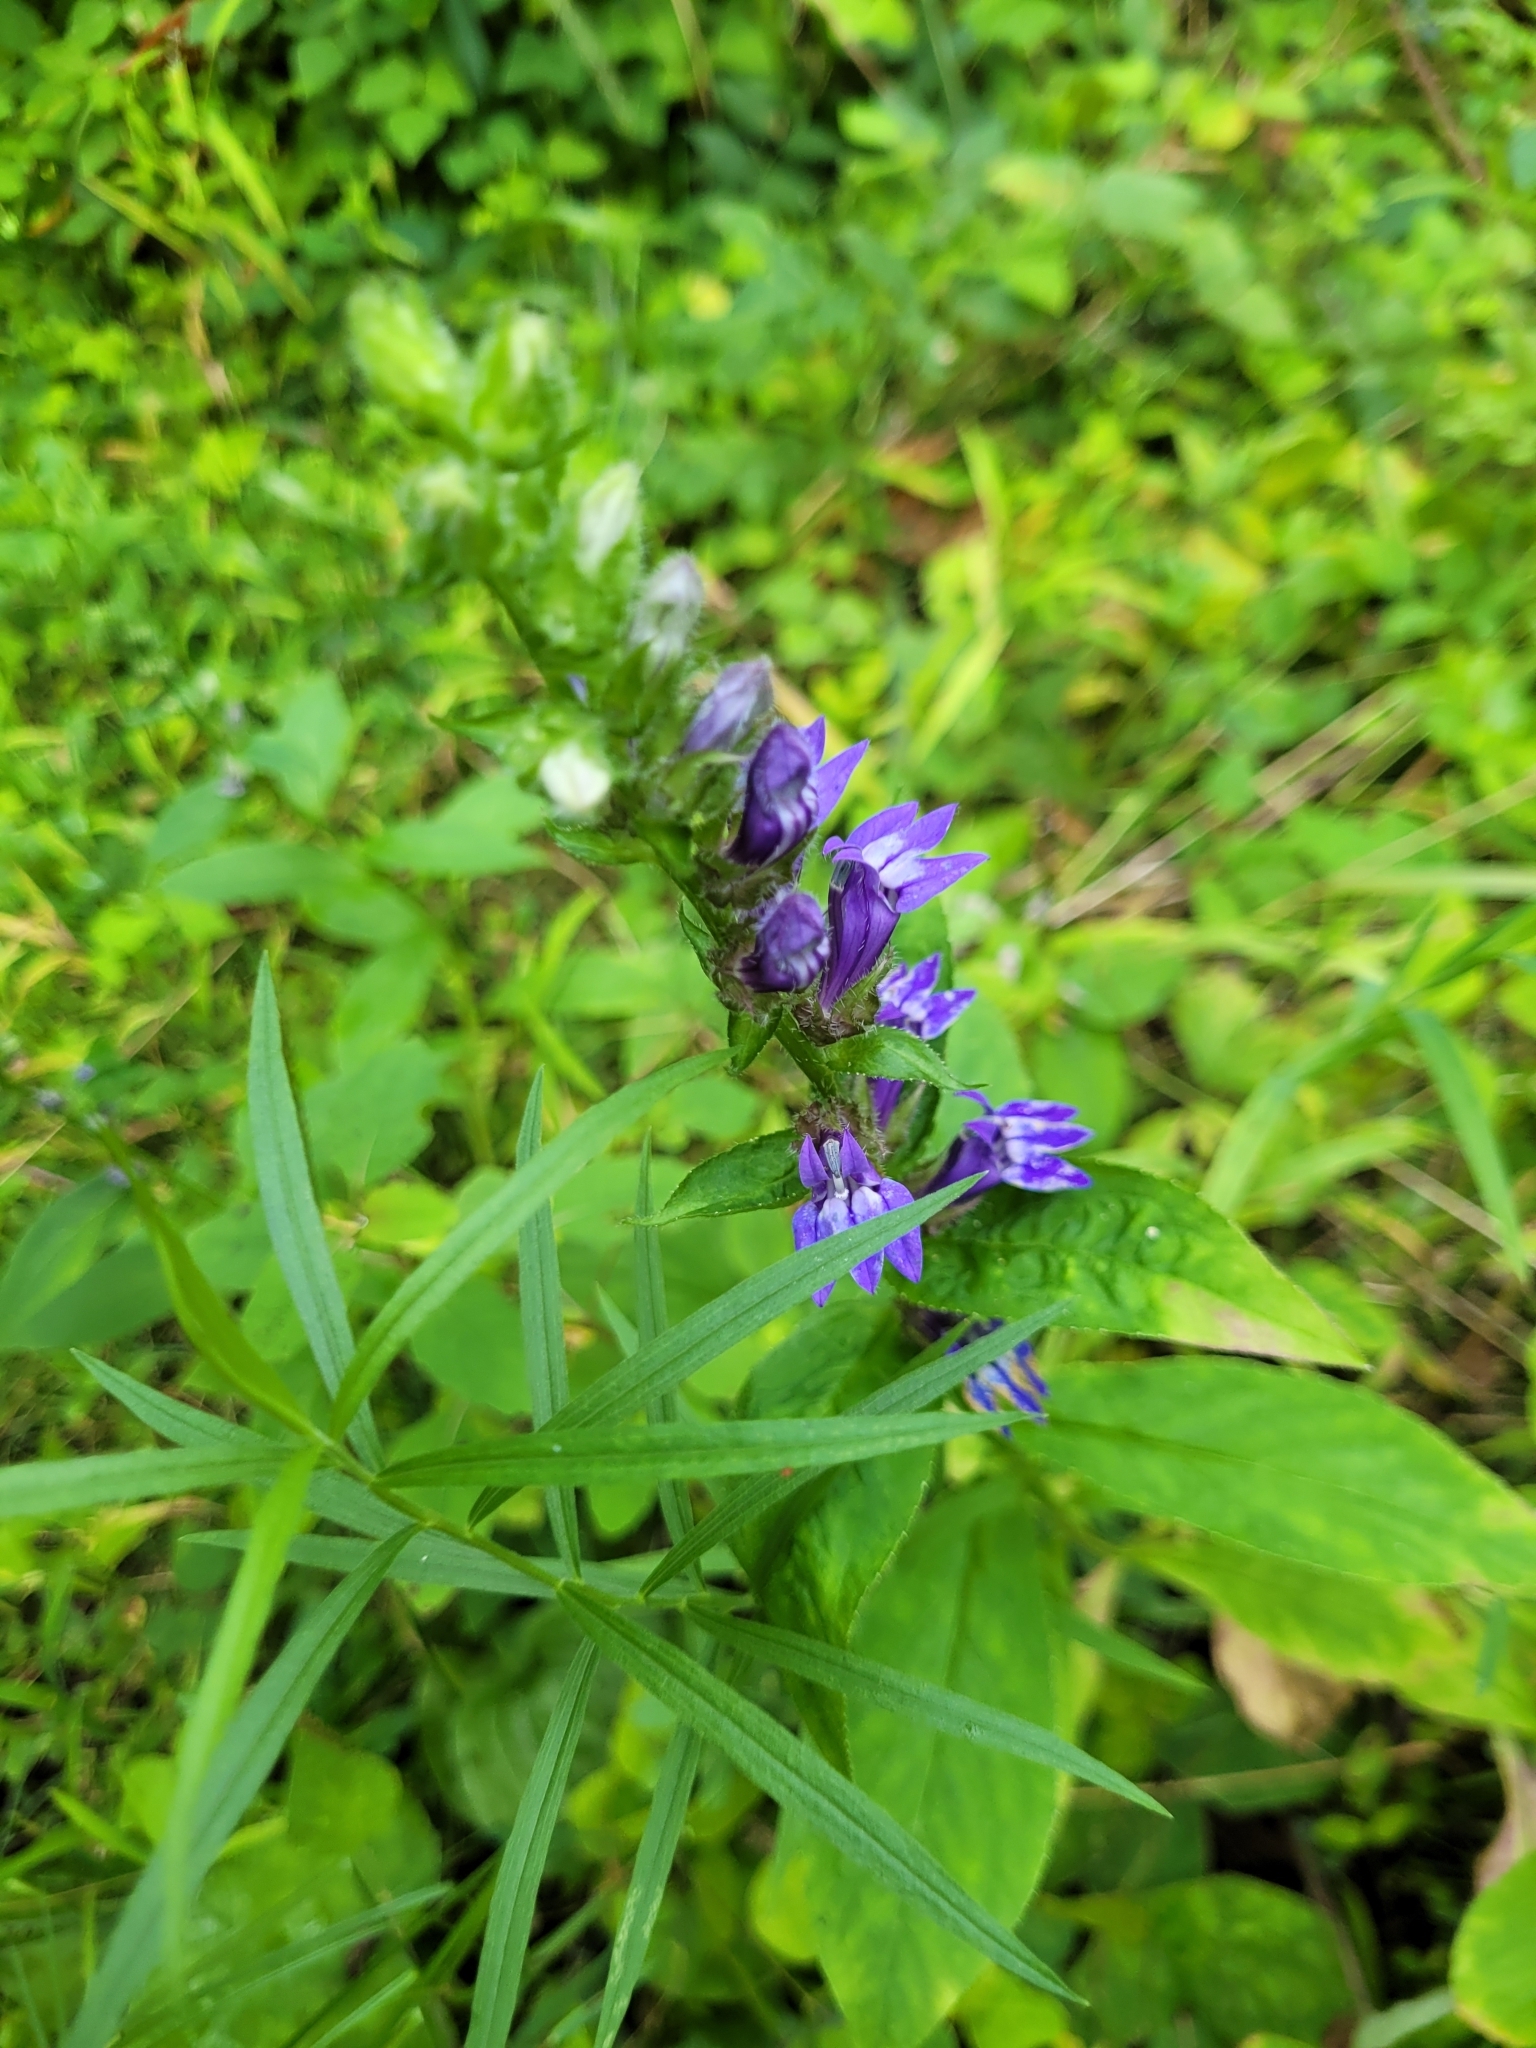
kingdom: Plantae
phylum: Tracheophyta
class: Magnoliopsida
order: Asterales
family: Campanulaceae
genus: Lobelia
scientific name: Lobelia siphilitica
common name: Great lobelia
